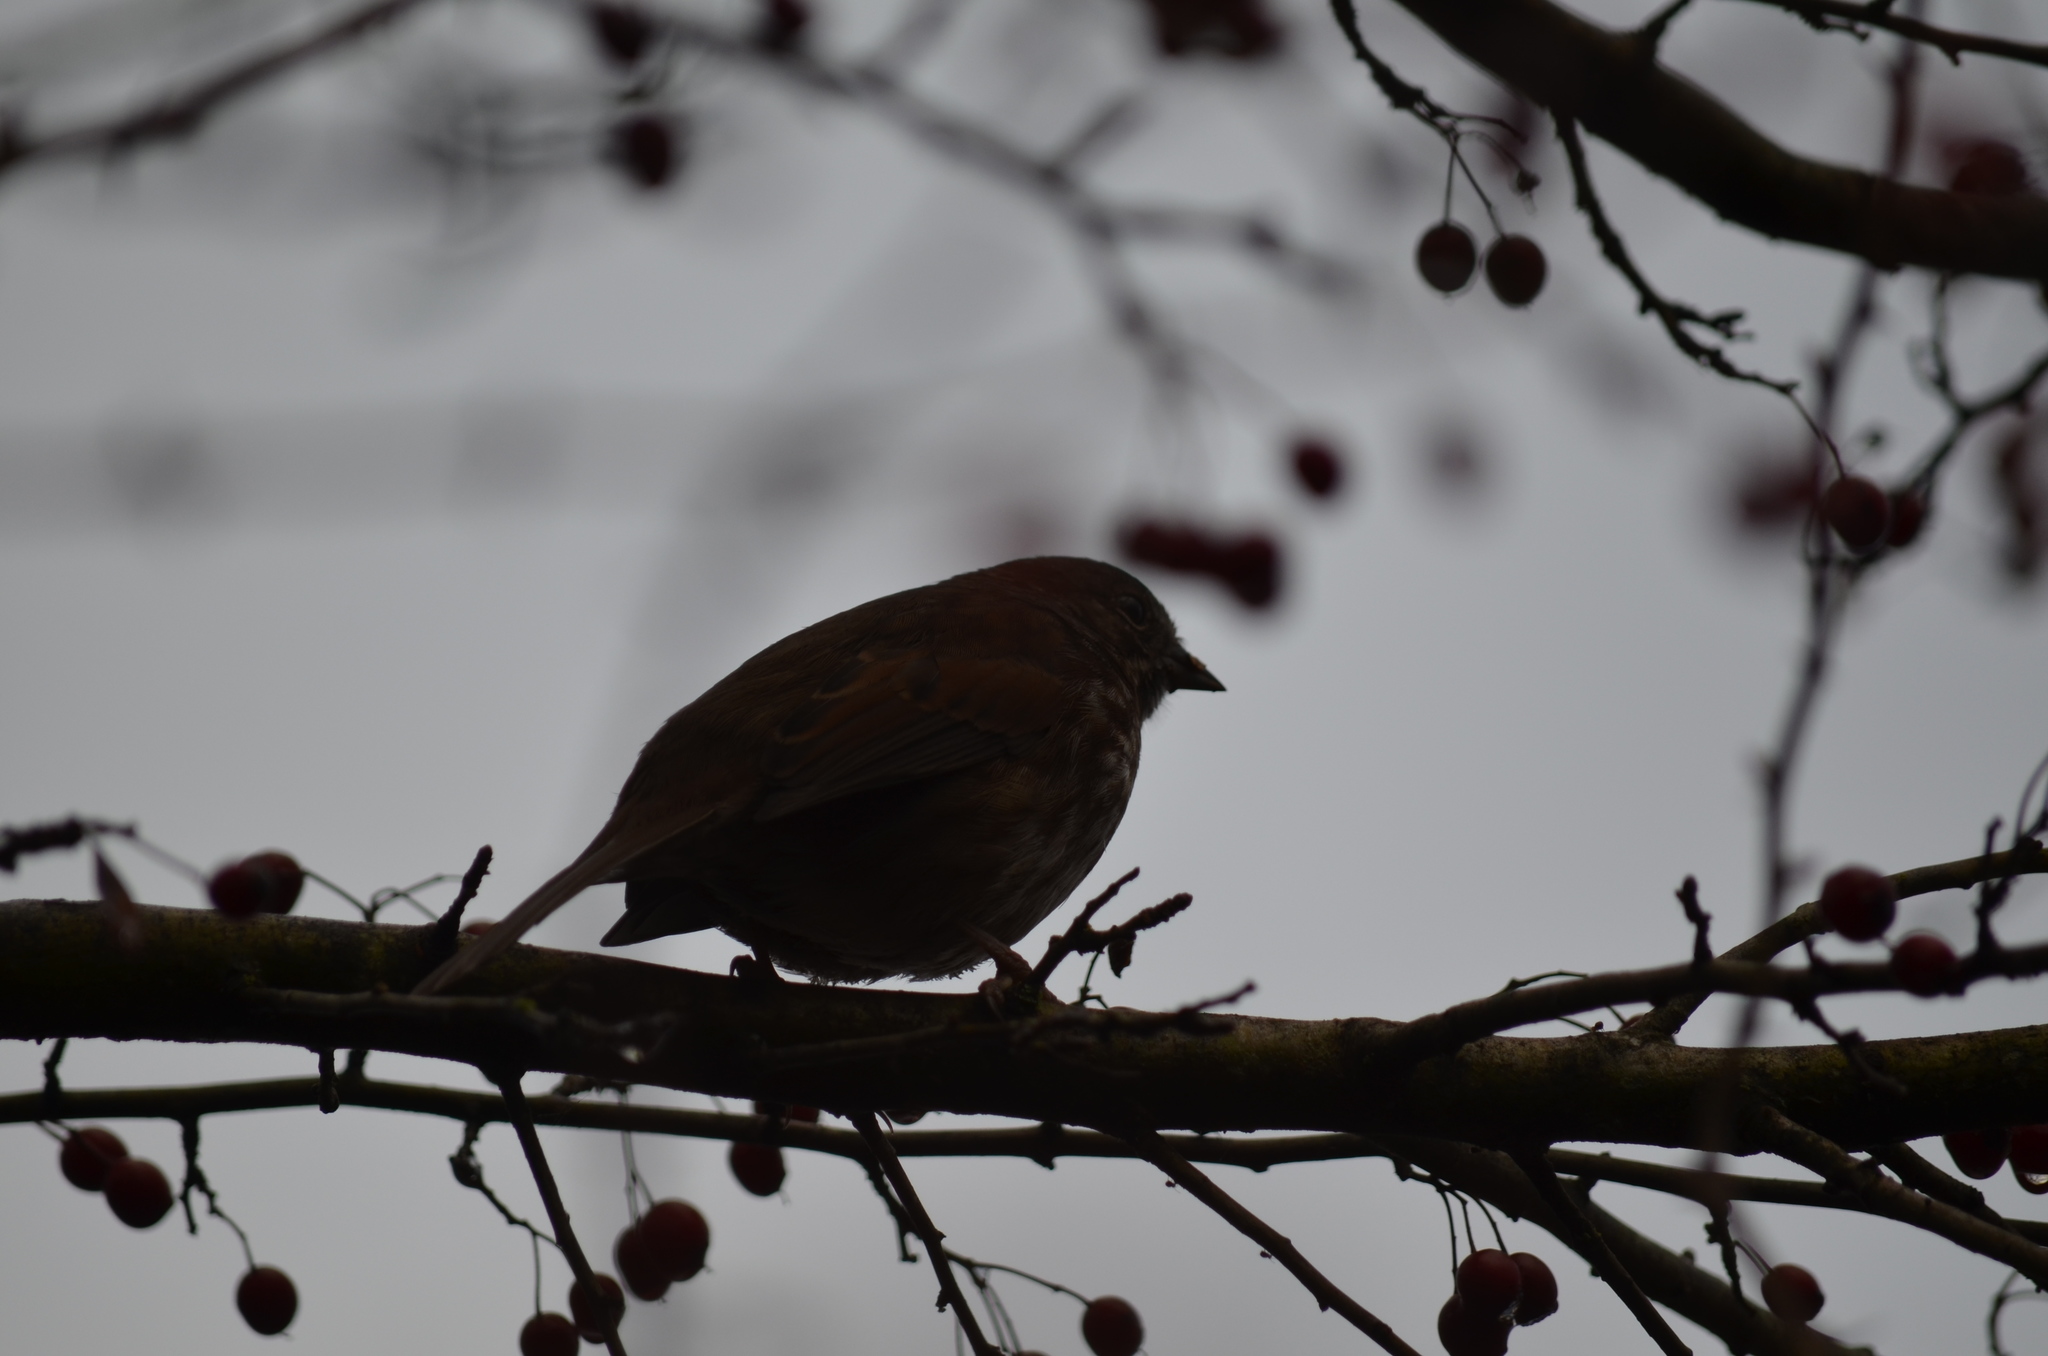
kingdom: Animalia
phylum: Chordata
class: Aves
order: Passeriformes
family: Passerellidae
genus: Melospiza
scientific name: Melospiza melodia
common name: Song sparrow
